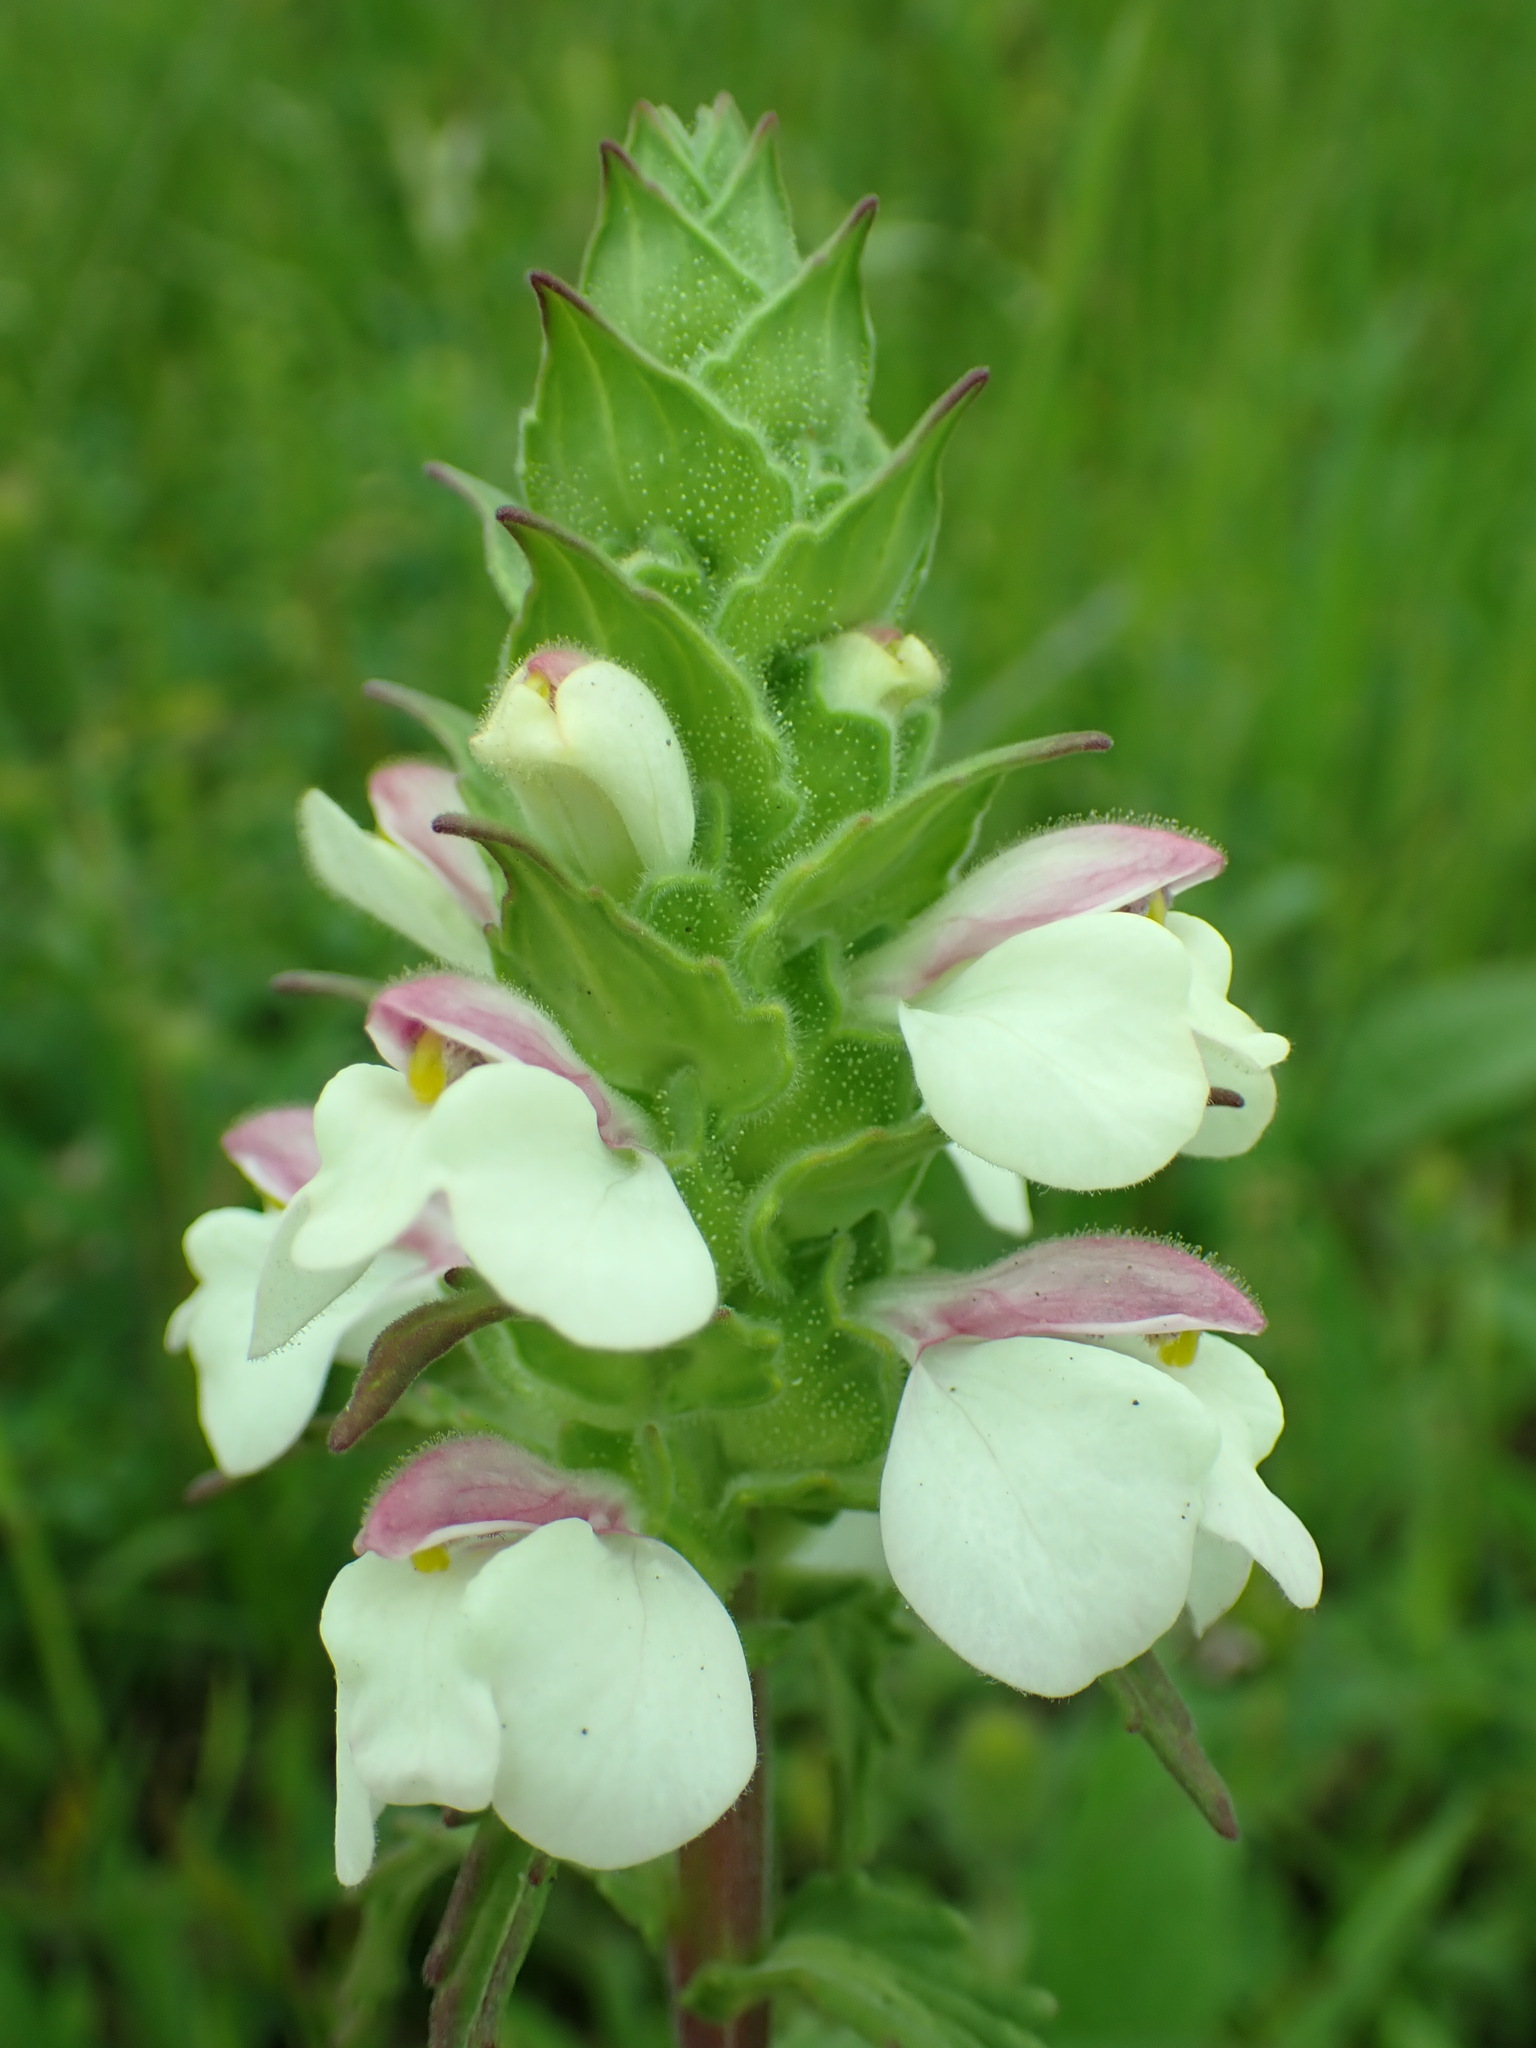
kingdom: Plantae
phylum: Tracheophyta
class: Magnoliopsida
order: Lamiales
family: Orobanchaceae
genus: Bellardia
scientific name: Bellardia trixago
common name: Mediterranean lineseed
